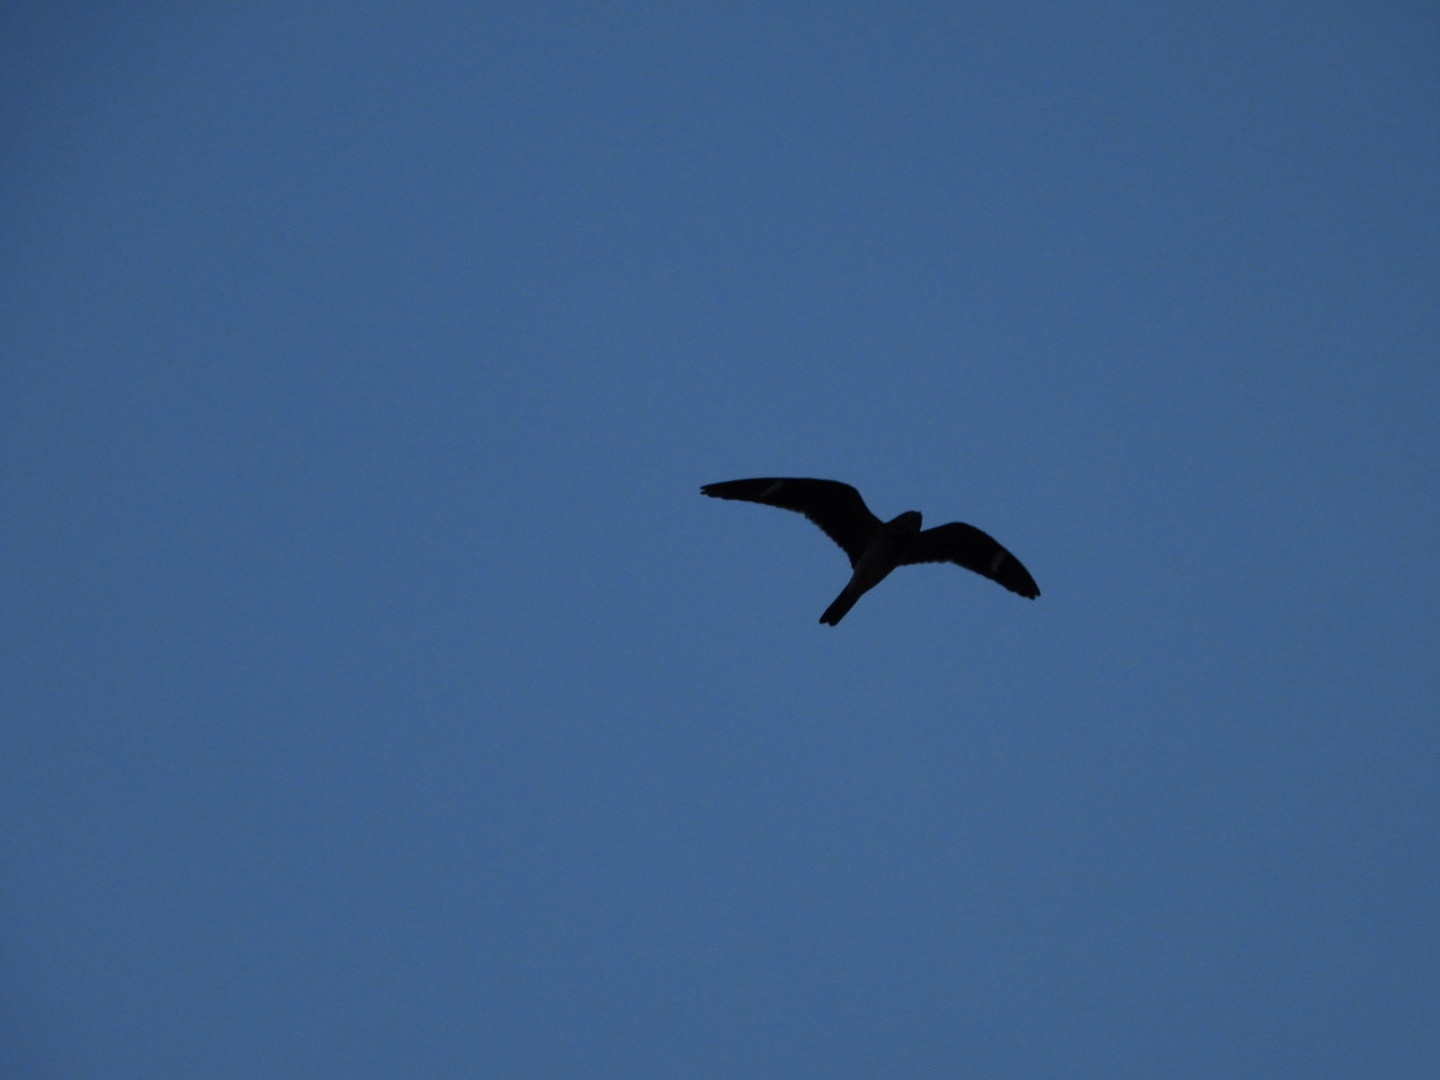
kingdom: Animalia
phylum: Chordata
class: Aves
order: Caprimulgiformes
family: Caprimulgidae
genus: Chordeiles
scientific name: Chordeiles minor
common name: Common nighthawk
